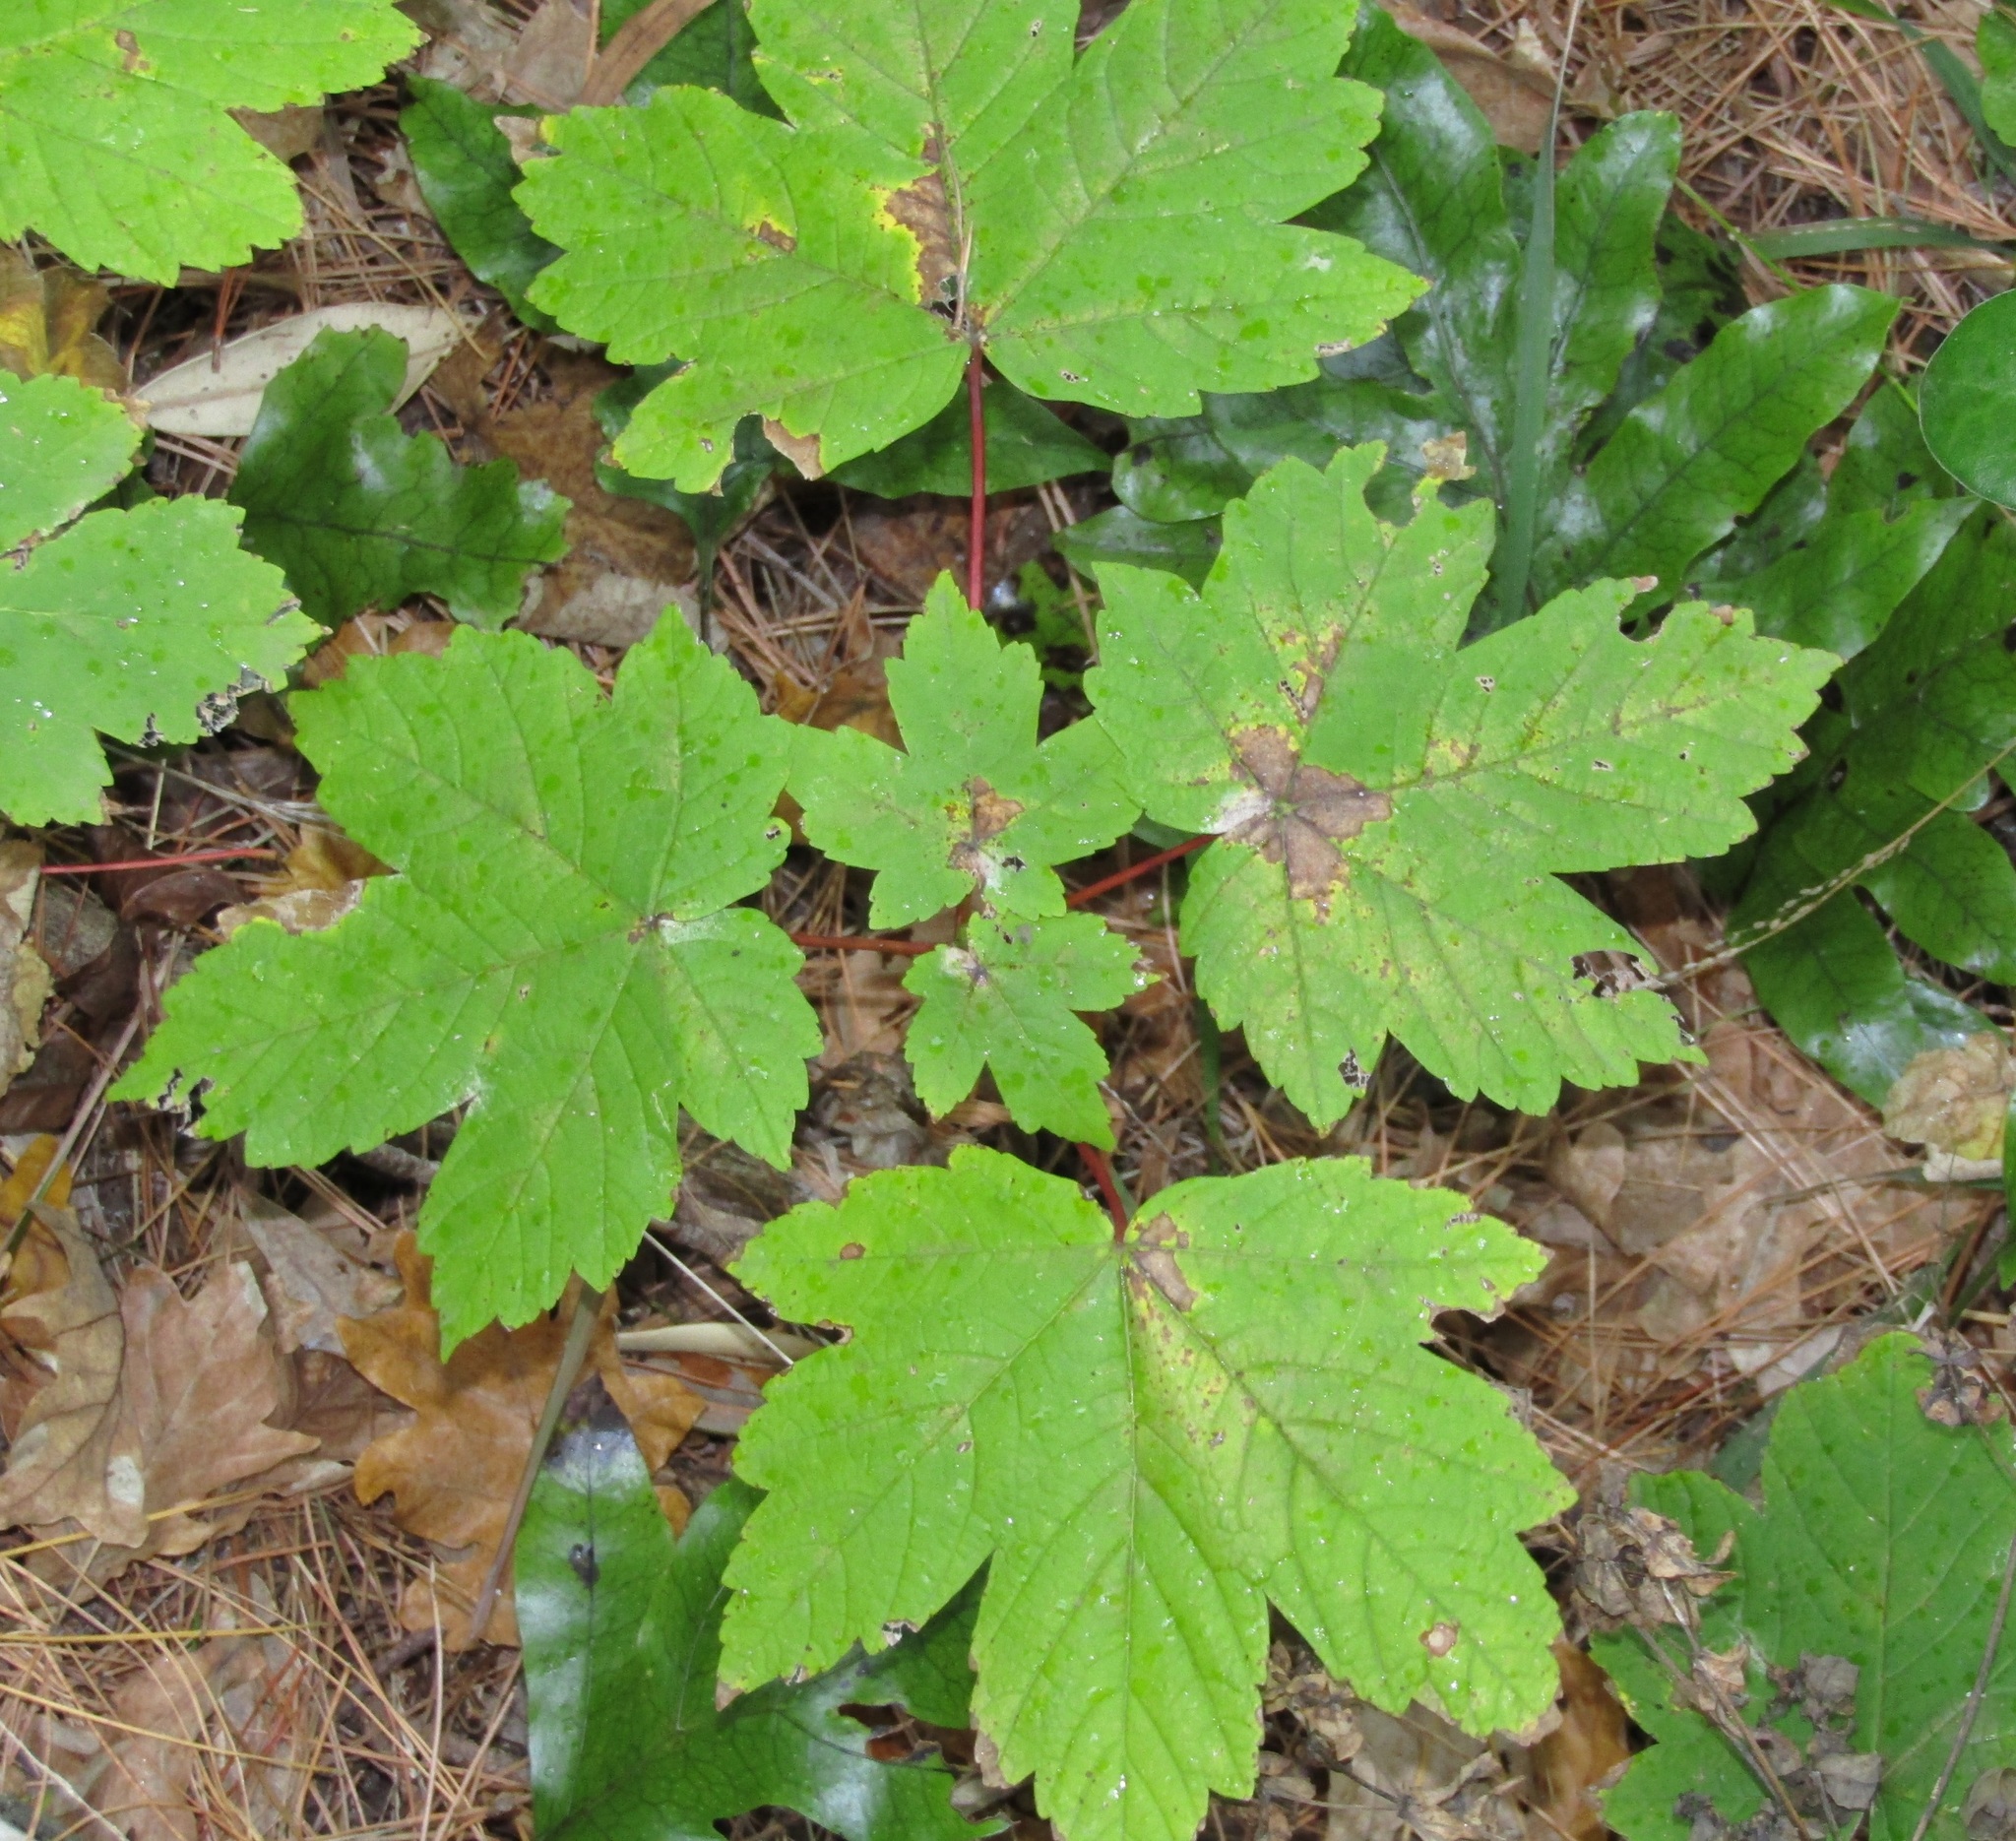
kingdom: Plantae
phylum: Tracheophyta
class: Magnoliopsida
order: Sapindales
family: Sapindaceae
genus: Acer
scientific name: Acer pseudoplatanus
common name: Sycamore
